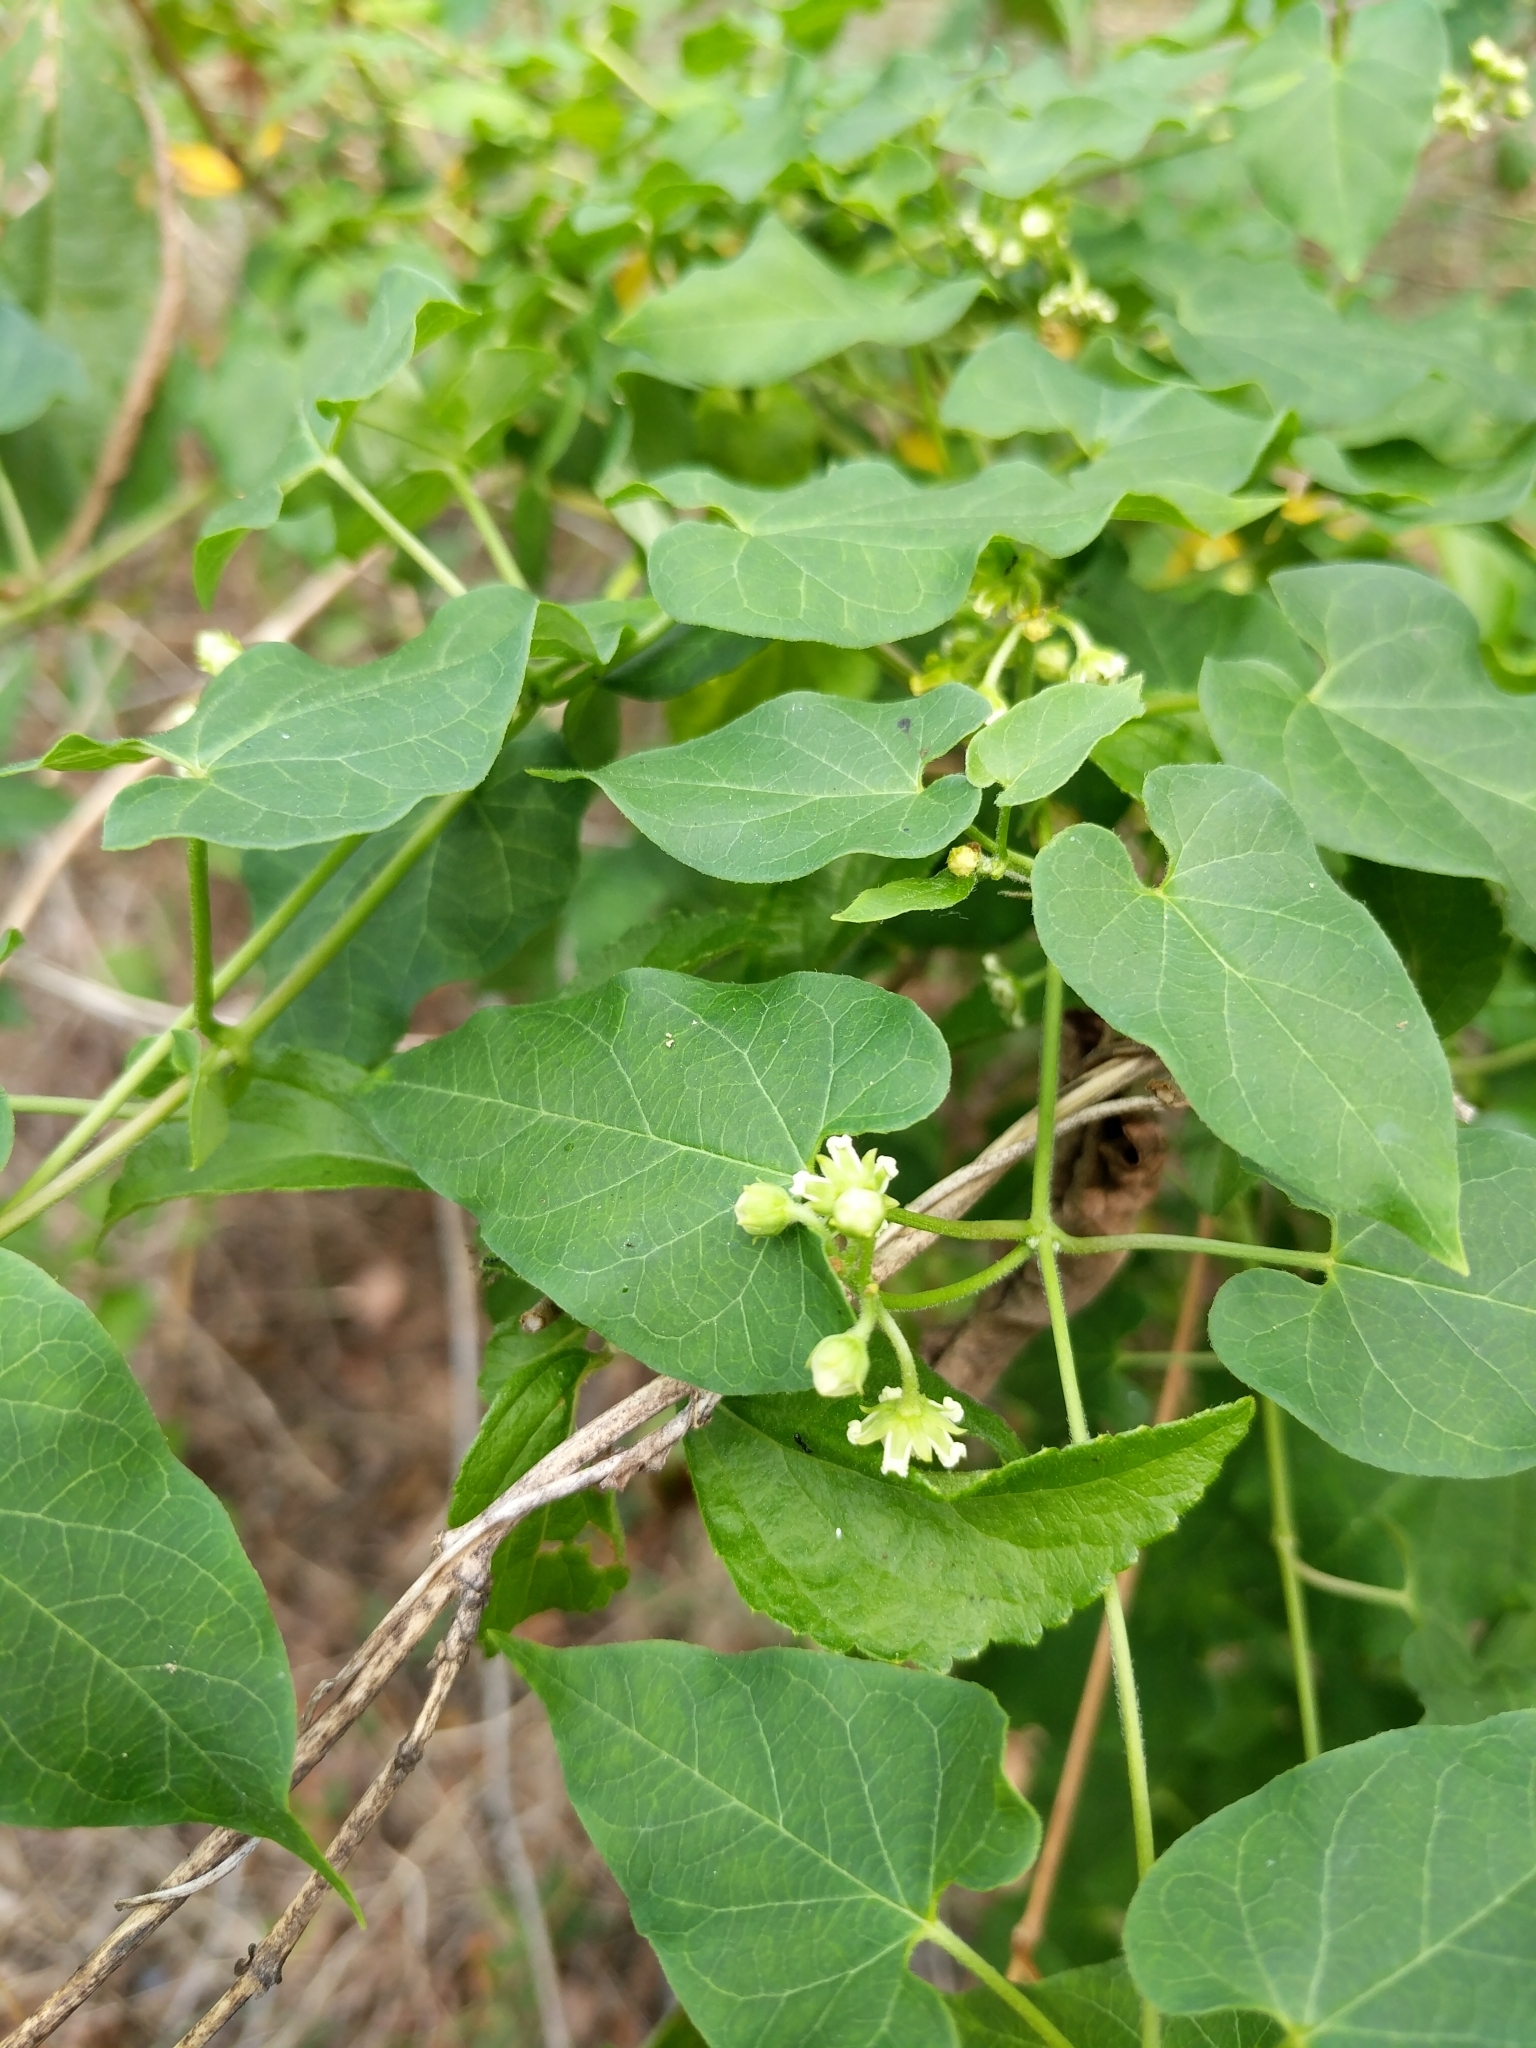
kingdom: Plantae
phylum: Tracheophyta
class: Magnoliopsida
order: Gentianales
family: Apocynaceae
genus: Cynanchum
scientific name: Cynanchum racemosum
